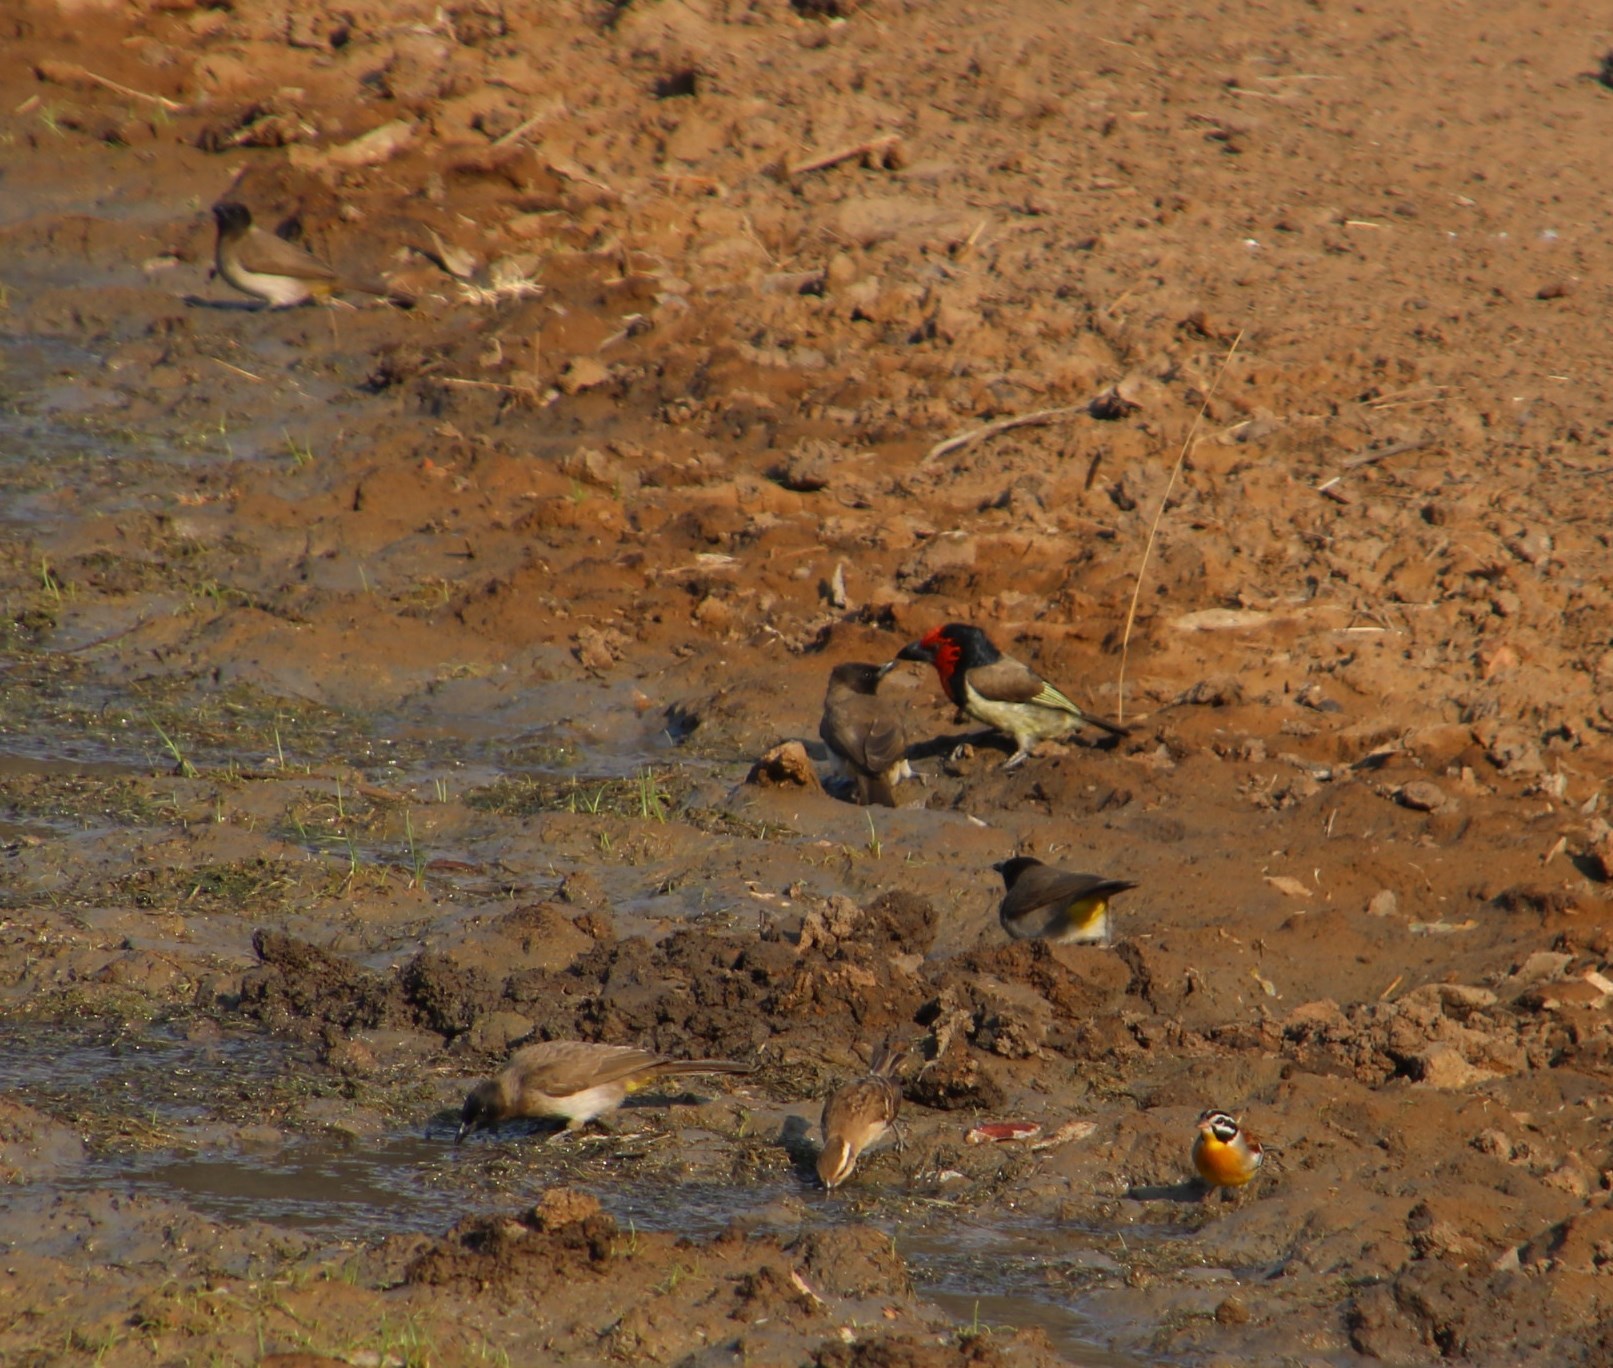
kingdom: Animalia
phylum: Chordata
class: Aves
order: Passeriformes
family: Pycnonotidae
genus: Pycnonotus
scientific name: Pycnonotus barbatus
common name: Common bulbul
